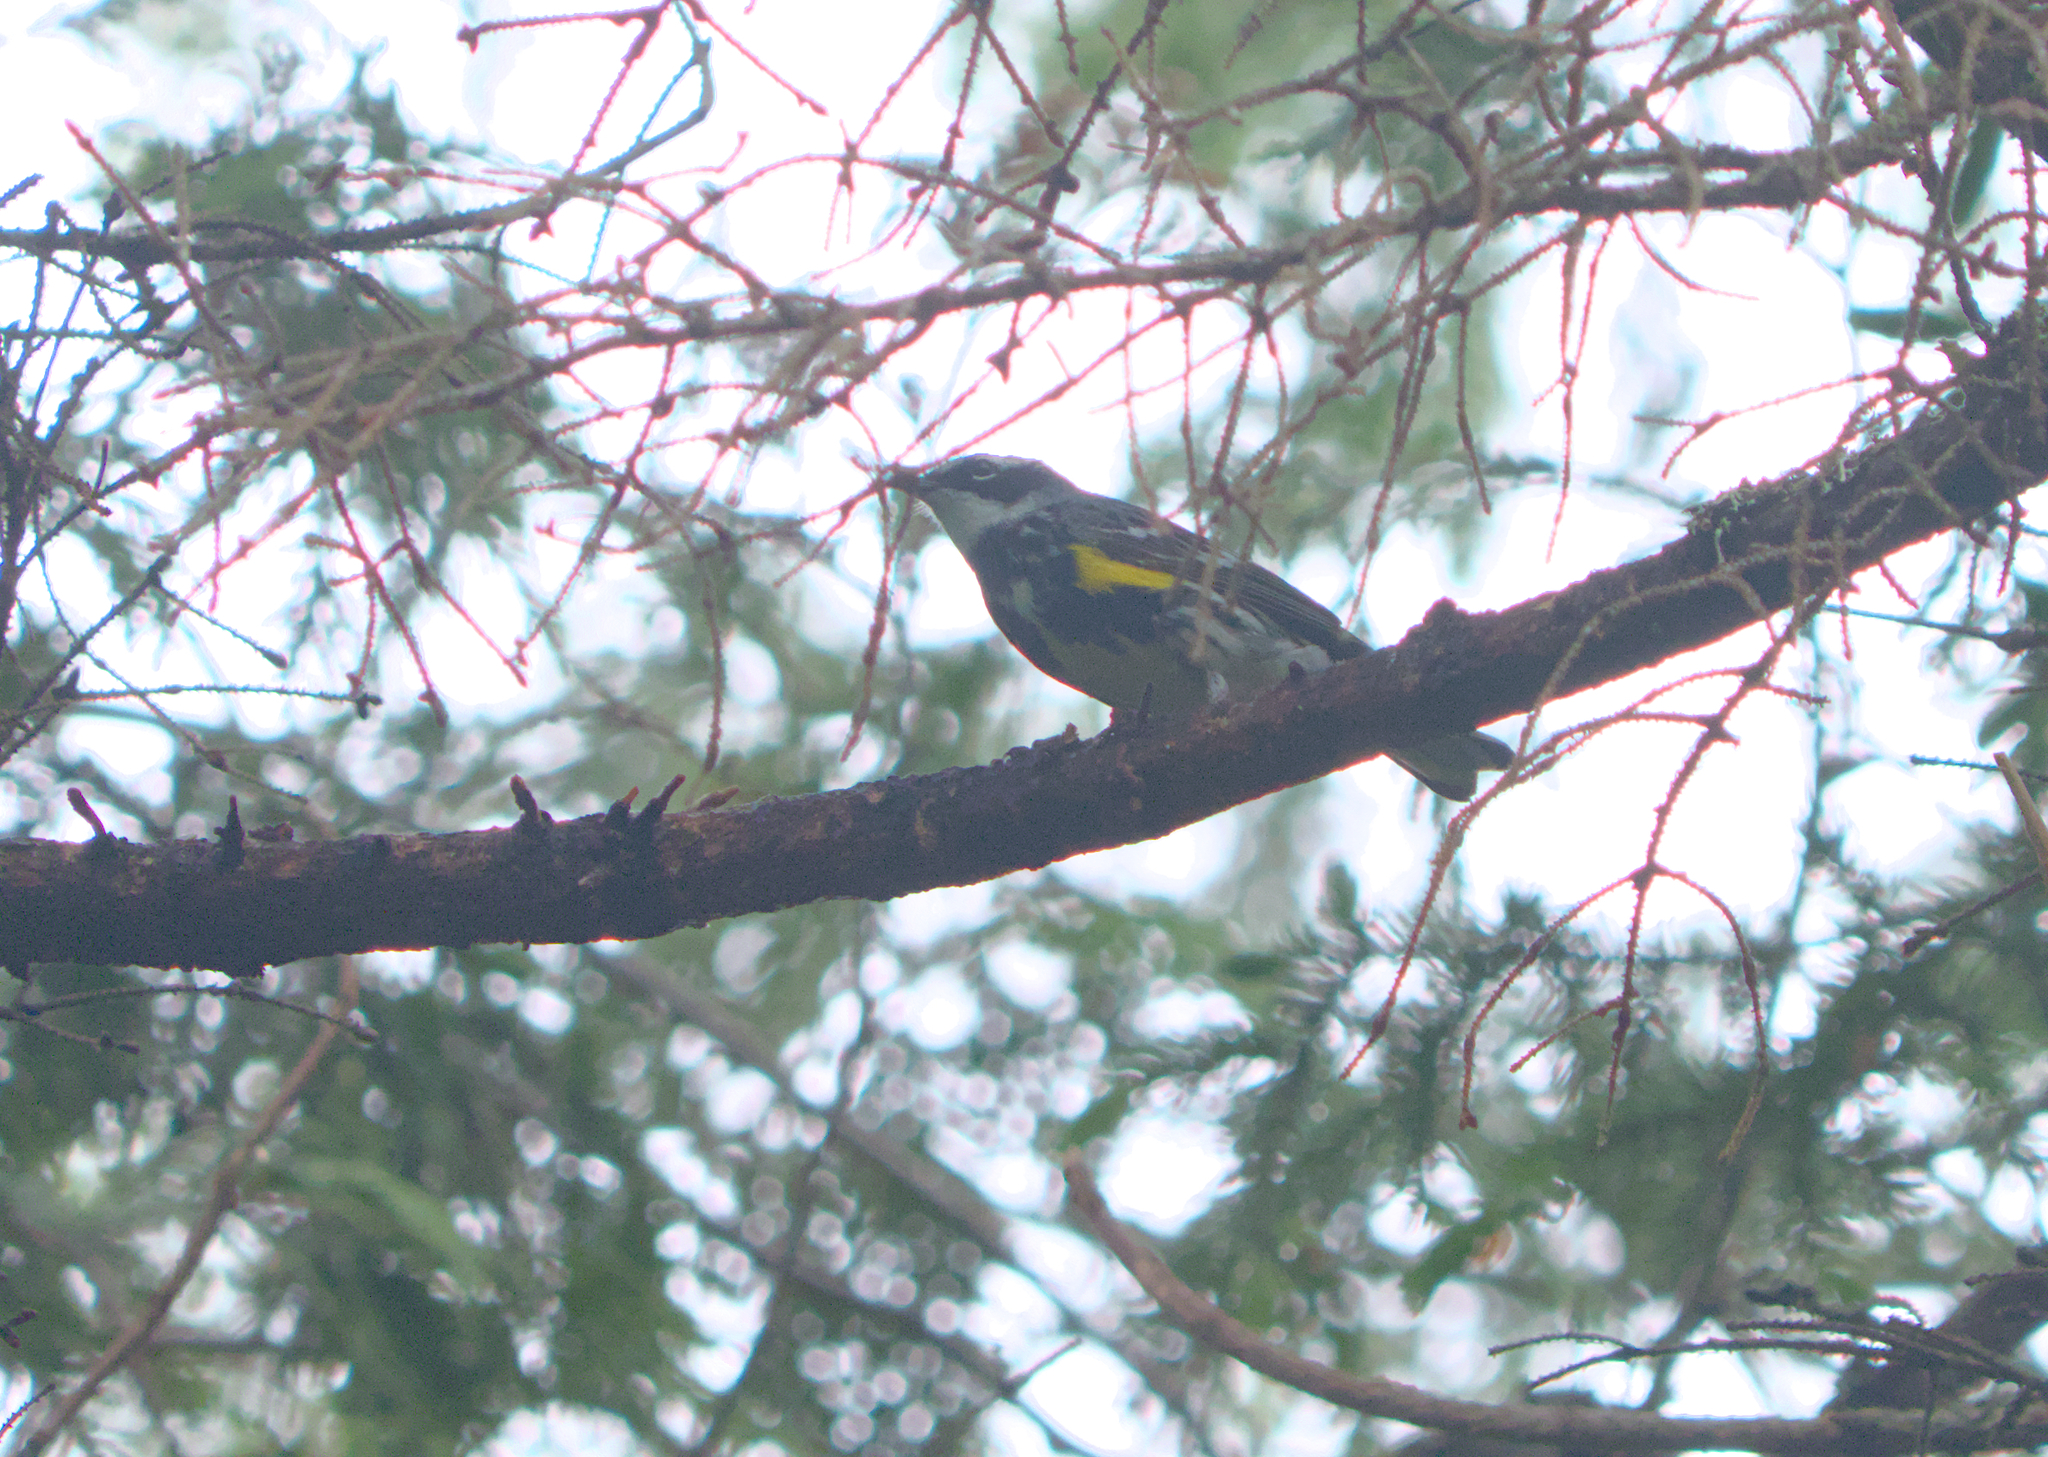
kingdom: Animalia
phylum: Chordata
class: Aves
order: Passeriformes
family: Parulidae
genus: Setophaga
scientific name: Setophaga coronata
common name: Myrtle warbler
